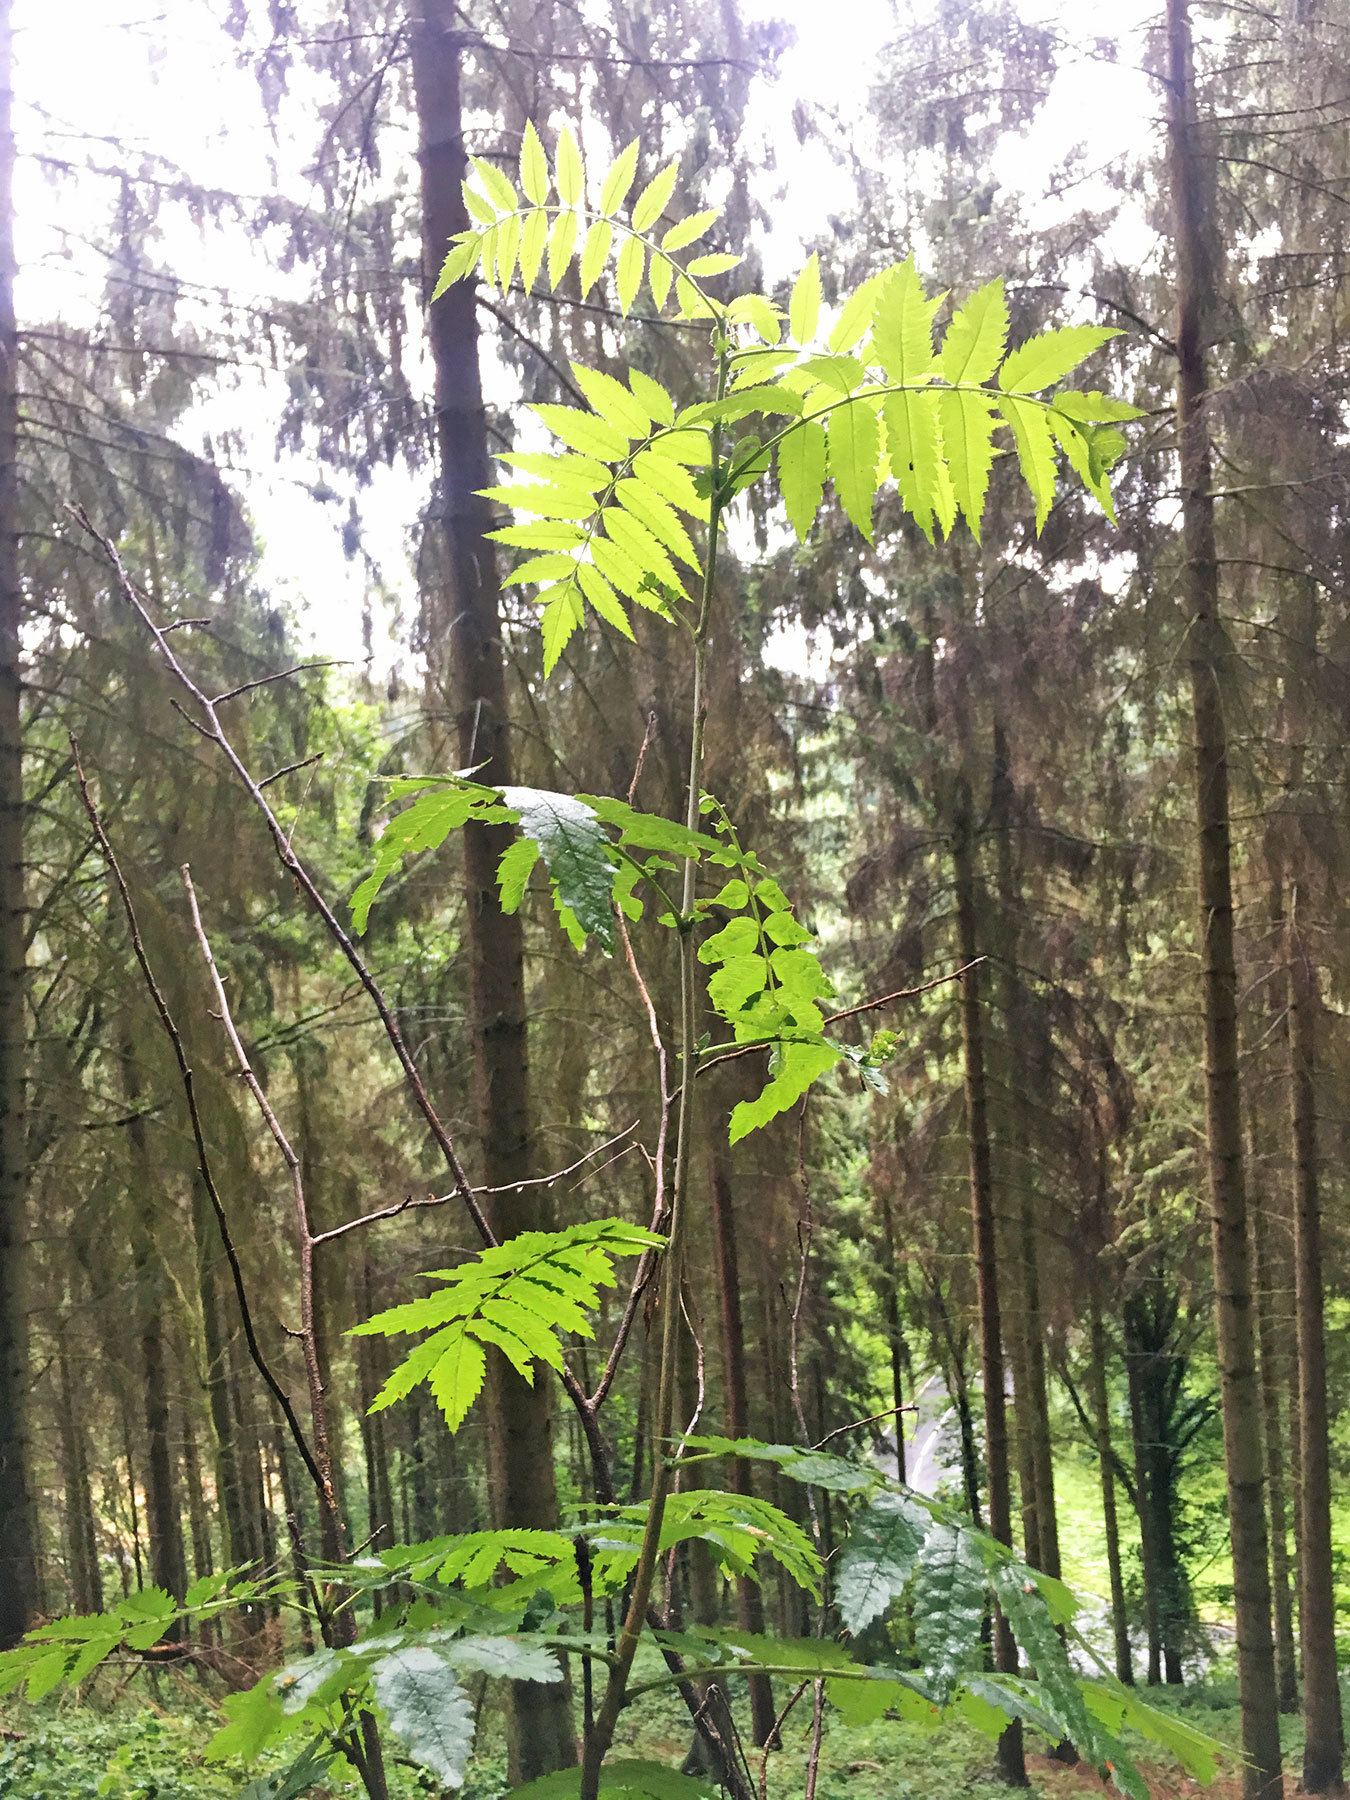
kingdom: Plantae
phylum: Tracheophyta
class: Magnoliopsida
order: Rosales
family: Rosaceae
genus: Sorbus
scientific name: Sorbus aucuparia
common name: Rowan
